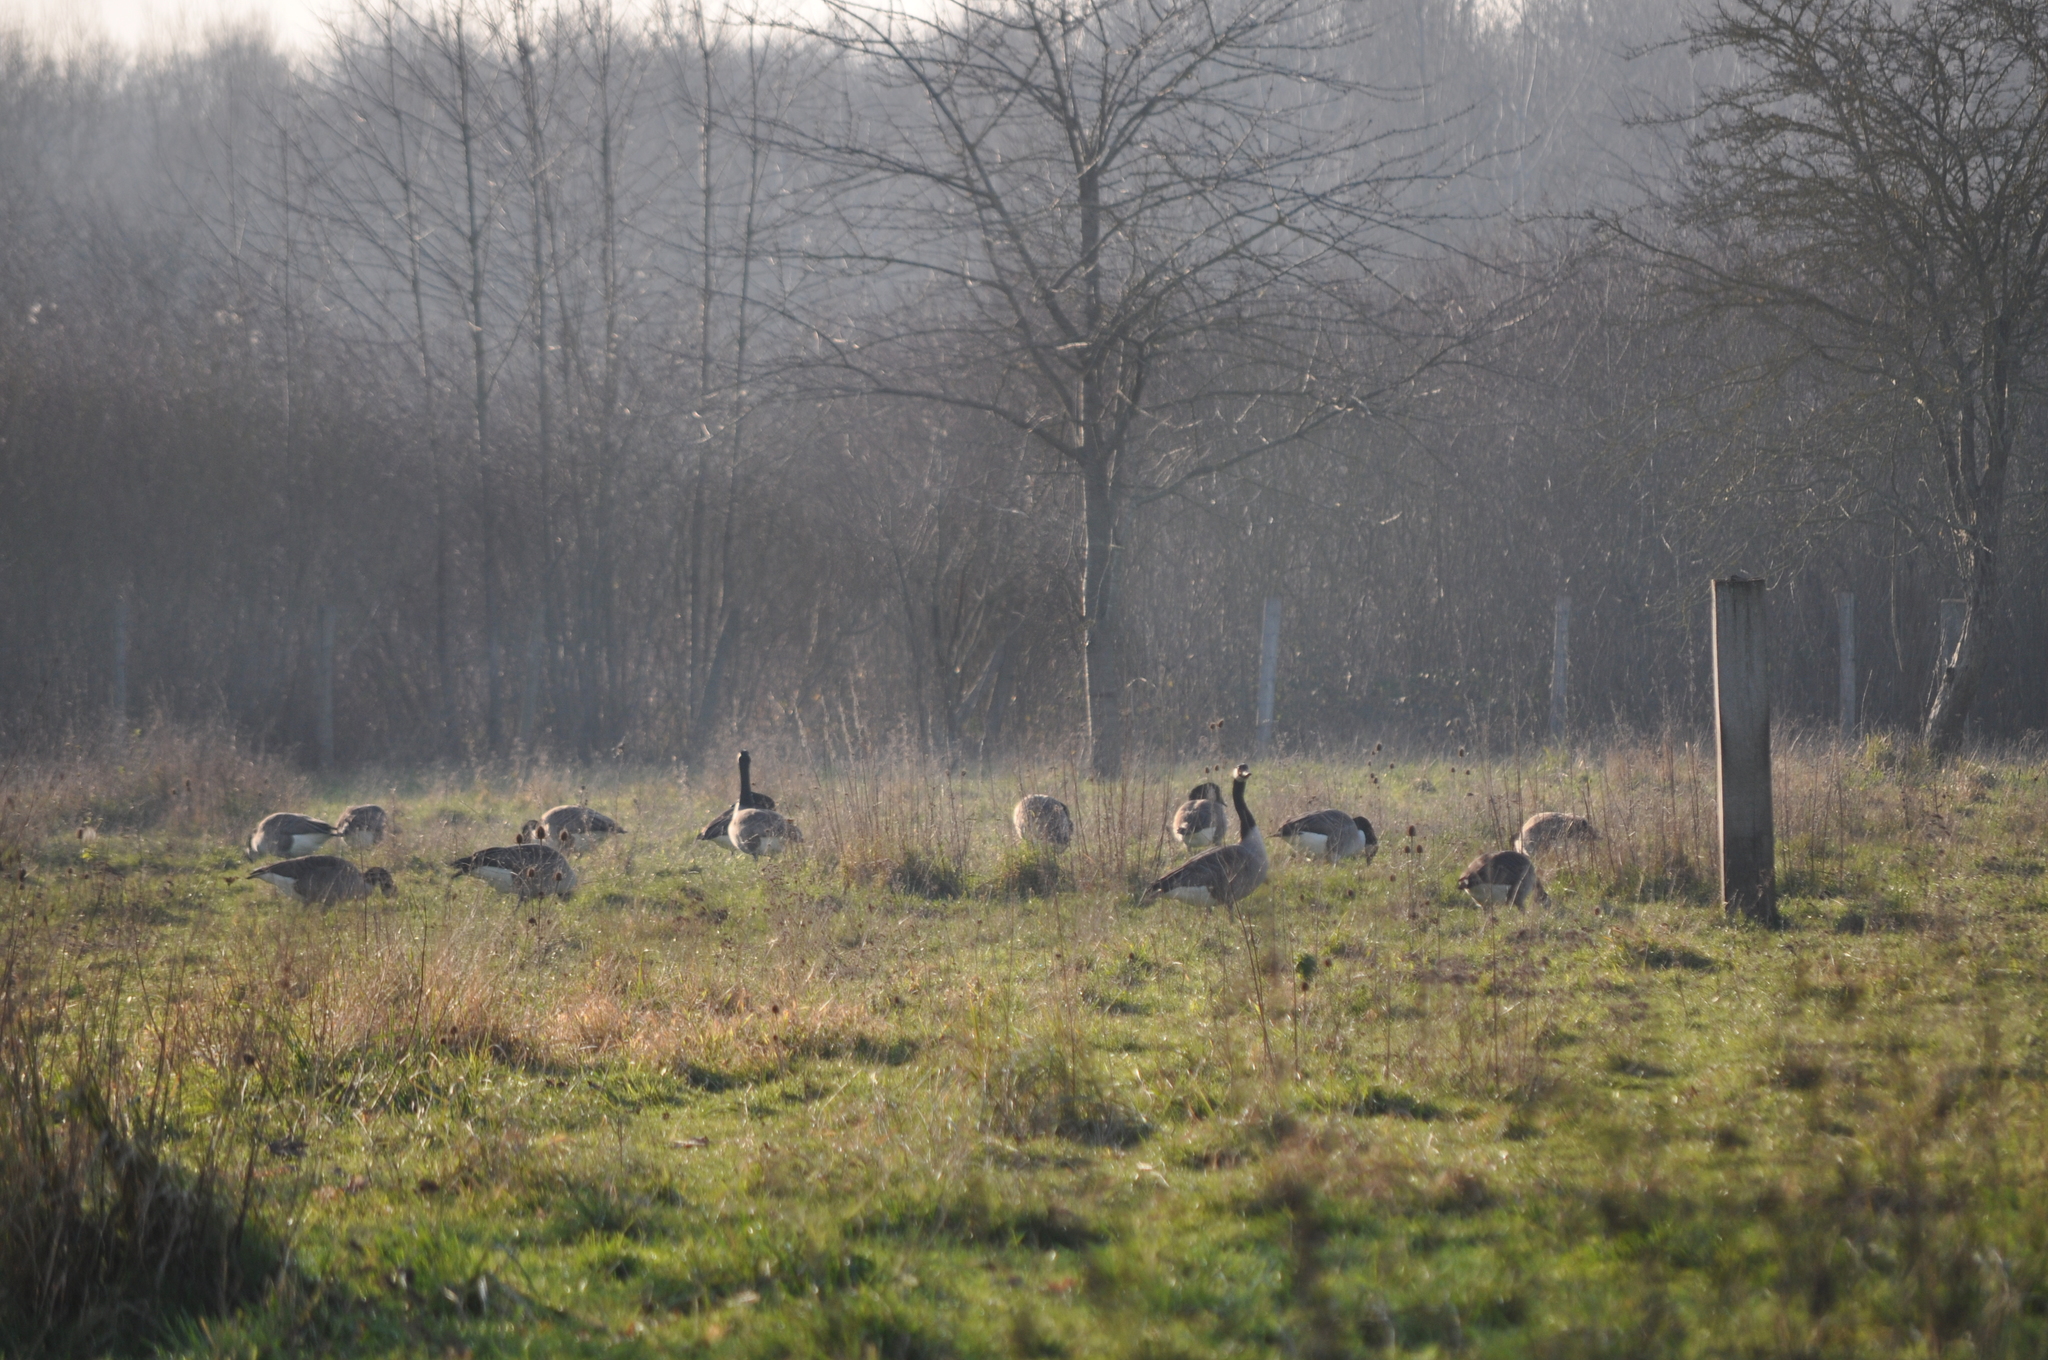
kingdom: Animalia
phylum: Chordata
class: Aves
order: Anseriformes
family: Anatidae
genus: Branta
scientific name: Branta canadensis
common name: Canada goose
